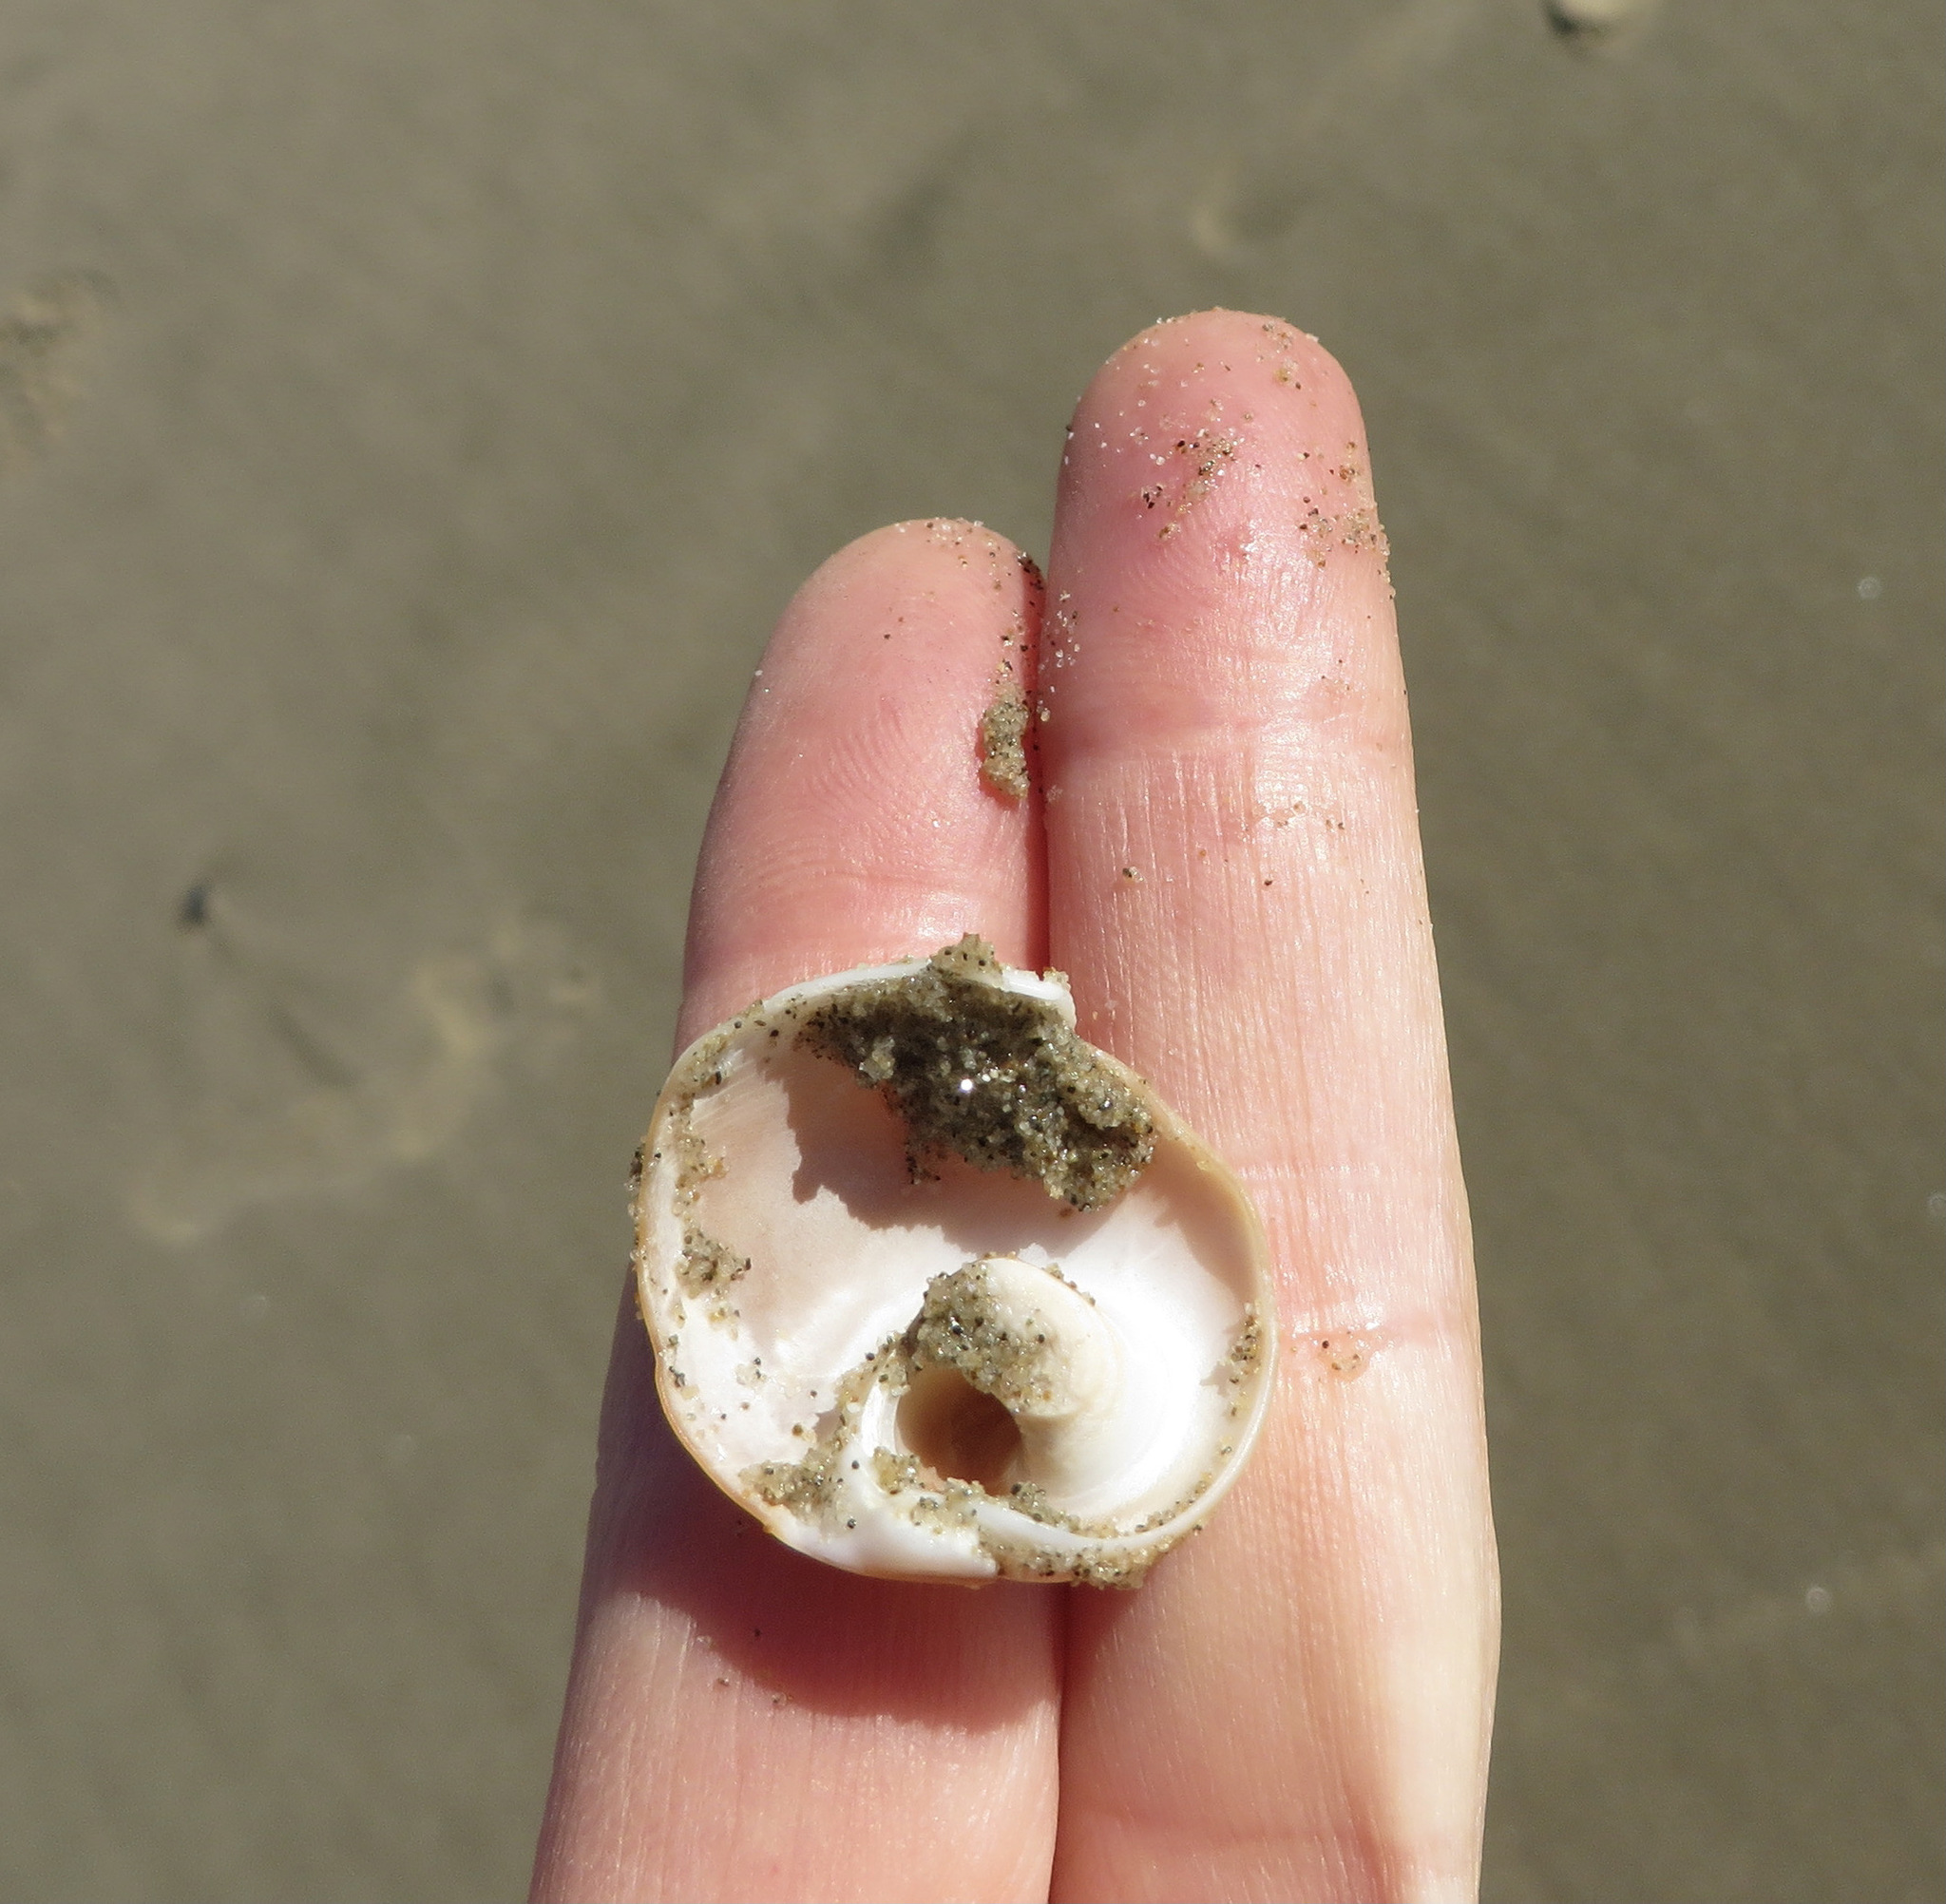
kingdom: Animalia
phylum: Mollusca
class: Gastropoda
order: Littorinimorpha
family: Naticidae
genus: Glossaulax
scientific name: Glossaulax reclusiana
